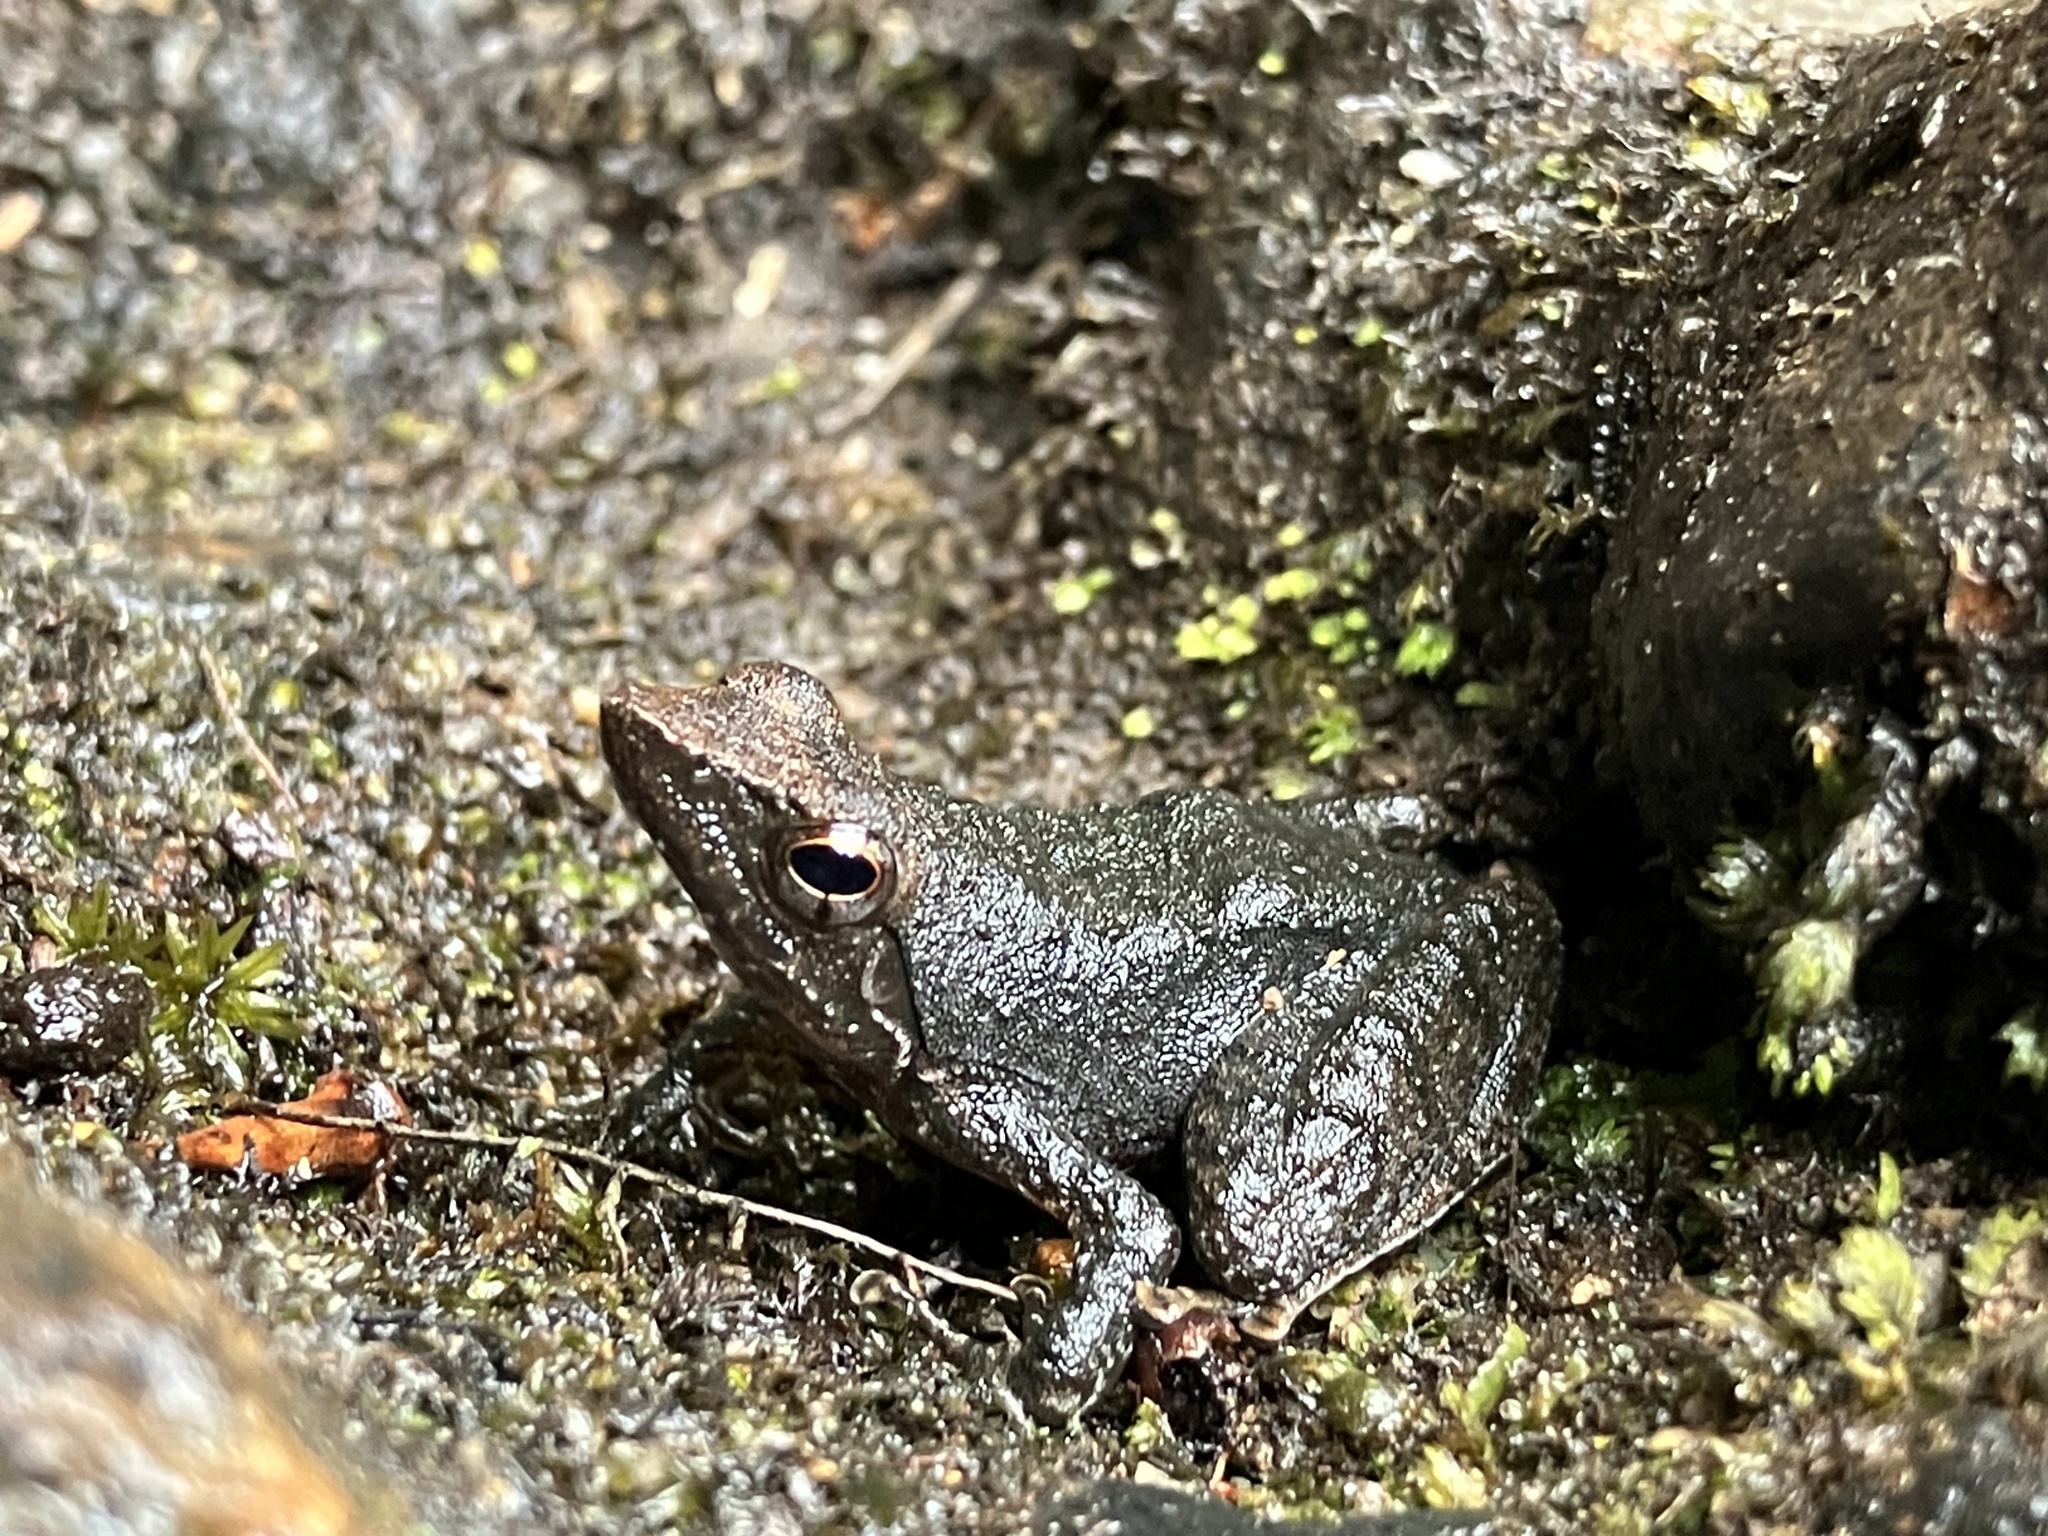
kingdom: Animalia
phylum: Chordata
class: Amphibia
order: Anura
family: Micrixalidae
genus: Micrixalus
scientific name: Micrixalus kottigeharensis
